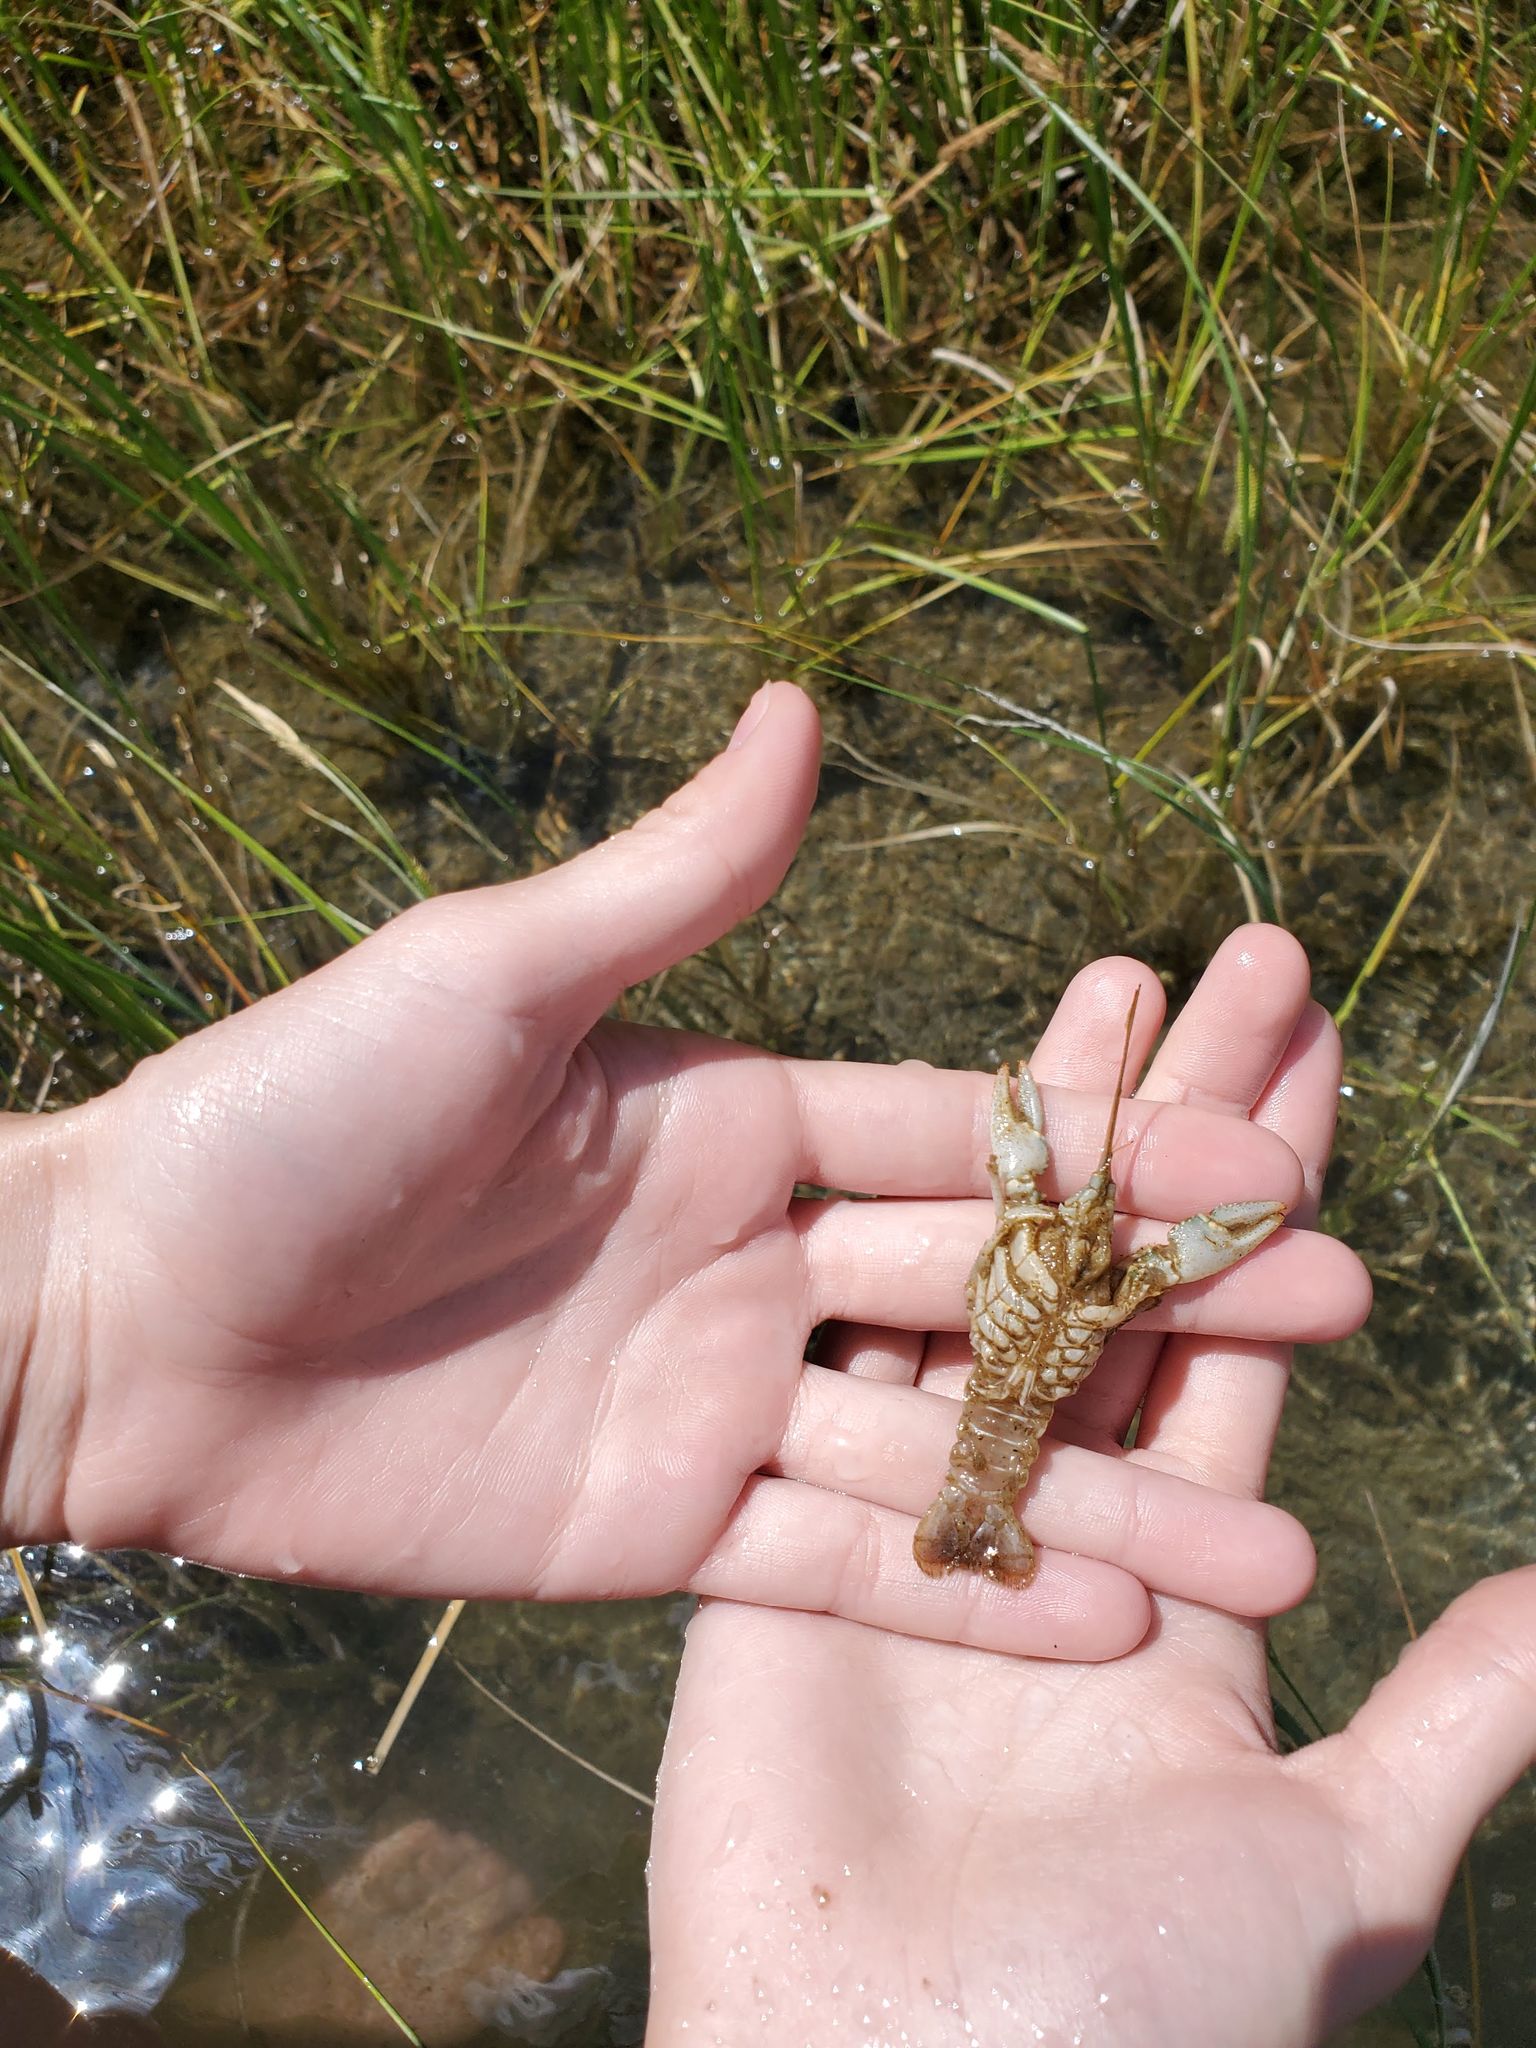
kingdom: Animalia
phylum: Arthropoda
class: Malacostraca
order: Decapoda
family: Cambaridae
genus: Faxonius
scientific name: Faxonius virilis
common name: Virile crayfish
